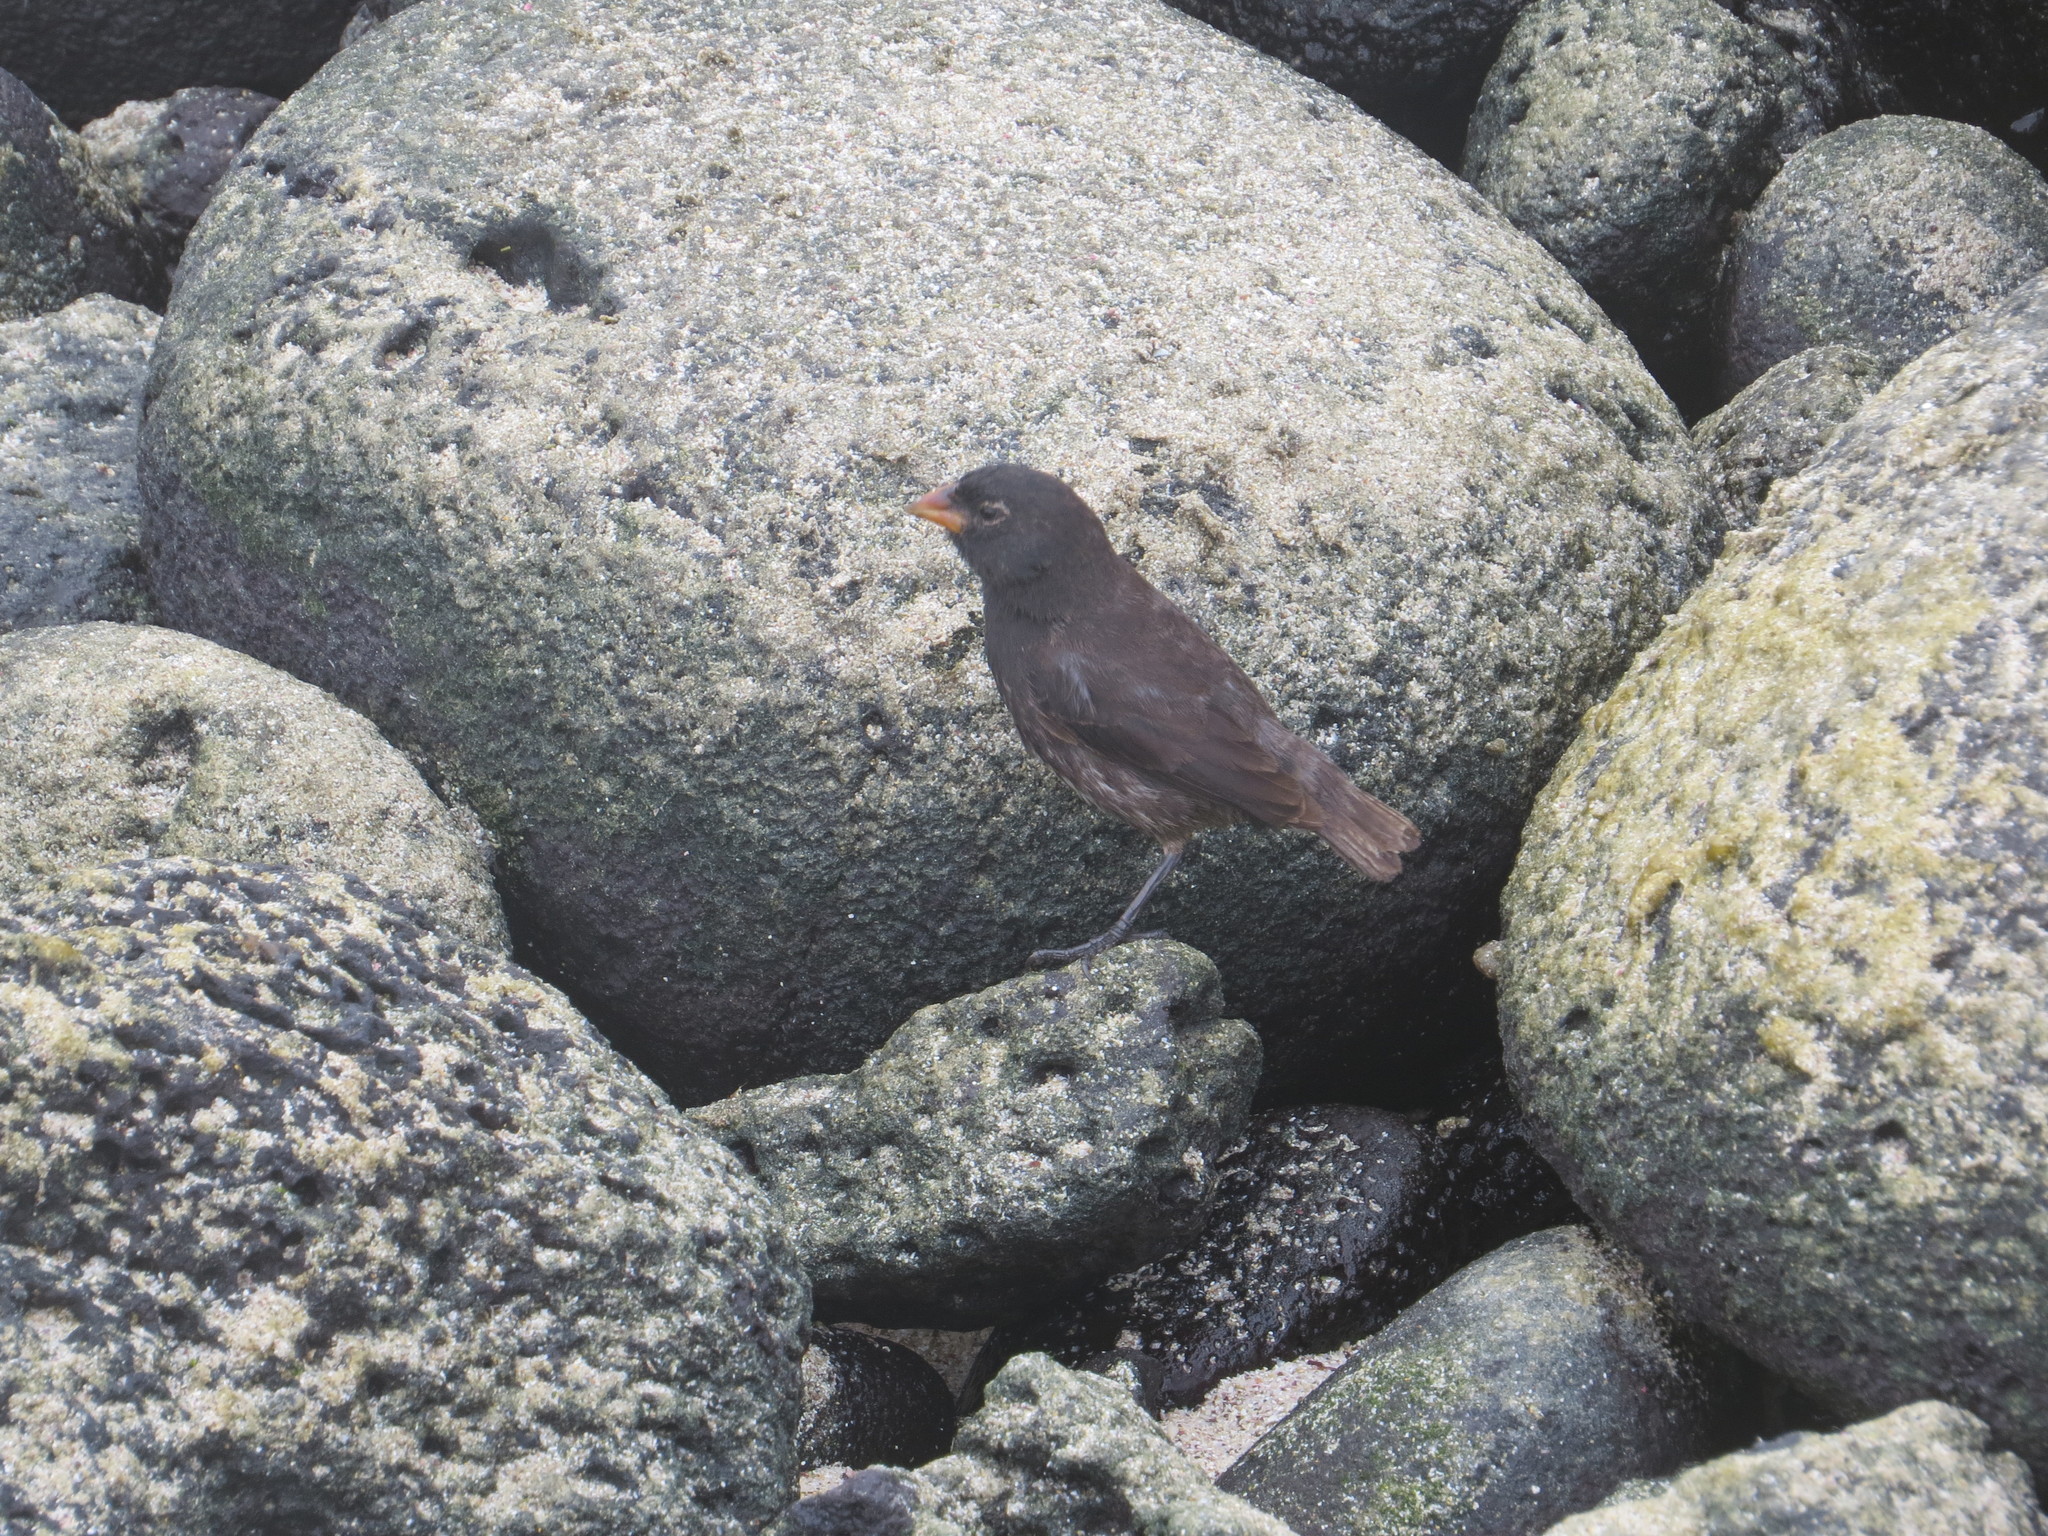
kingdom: Animalia
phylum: Chordata
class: Aves
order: Passeriformes
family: Thraupidae
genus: Geospiza
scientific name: Geospiza fuliginosa
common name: Small ground finch
